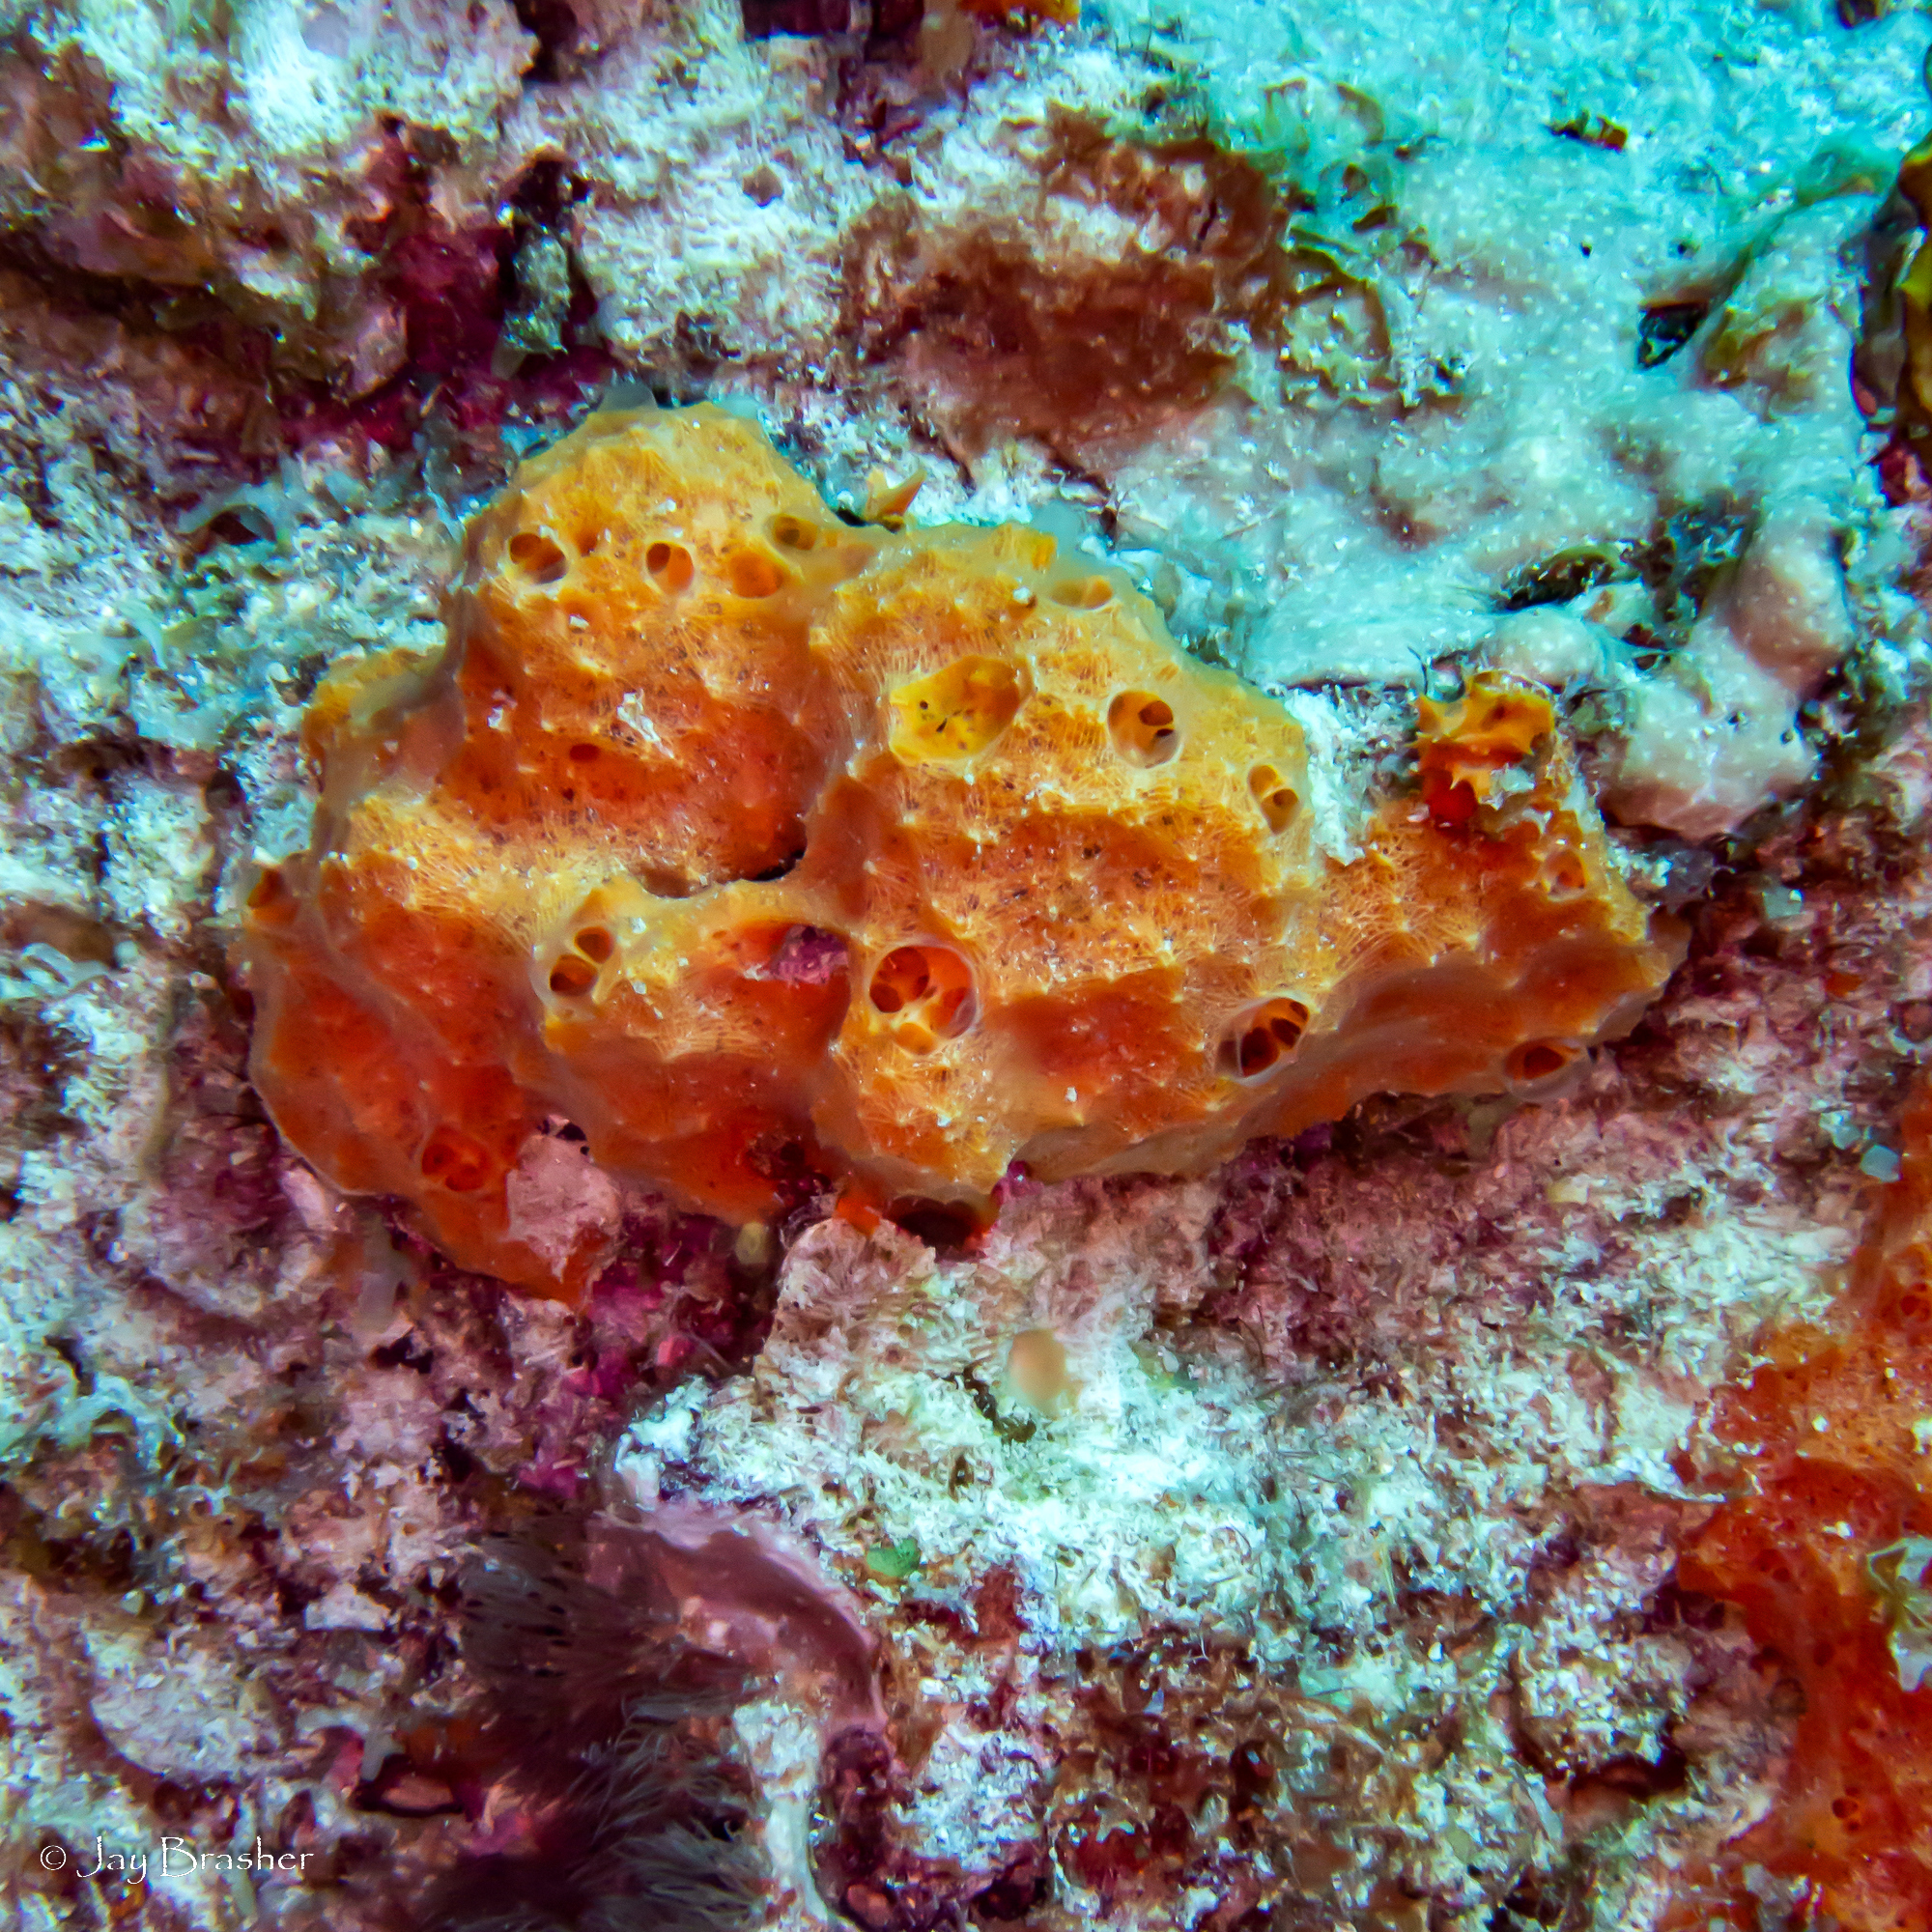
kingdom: Animalia
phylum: Porifera
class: Demospongiae
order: Scopalinida
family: Scopalinidae
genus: Scopalina
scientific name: Scopalina ruetzleri
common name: Orange lumpy encrusting sponge
